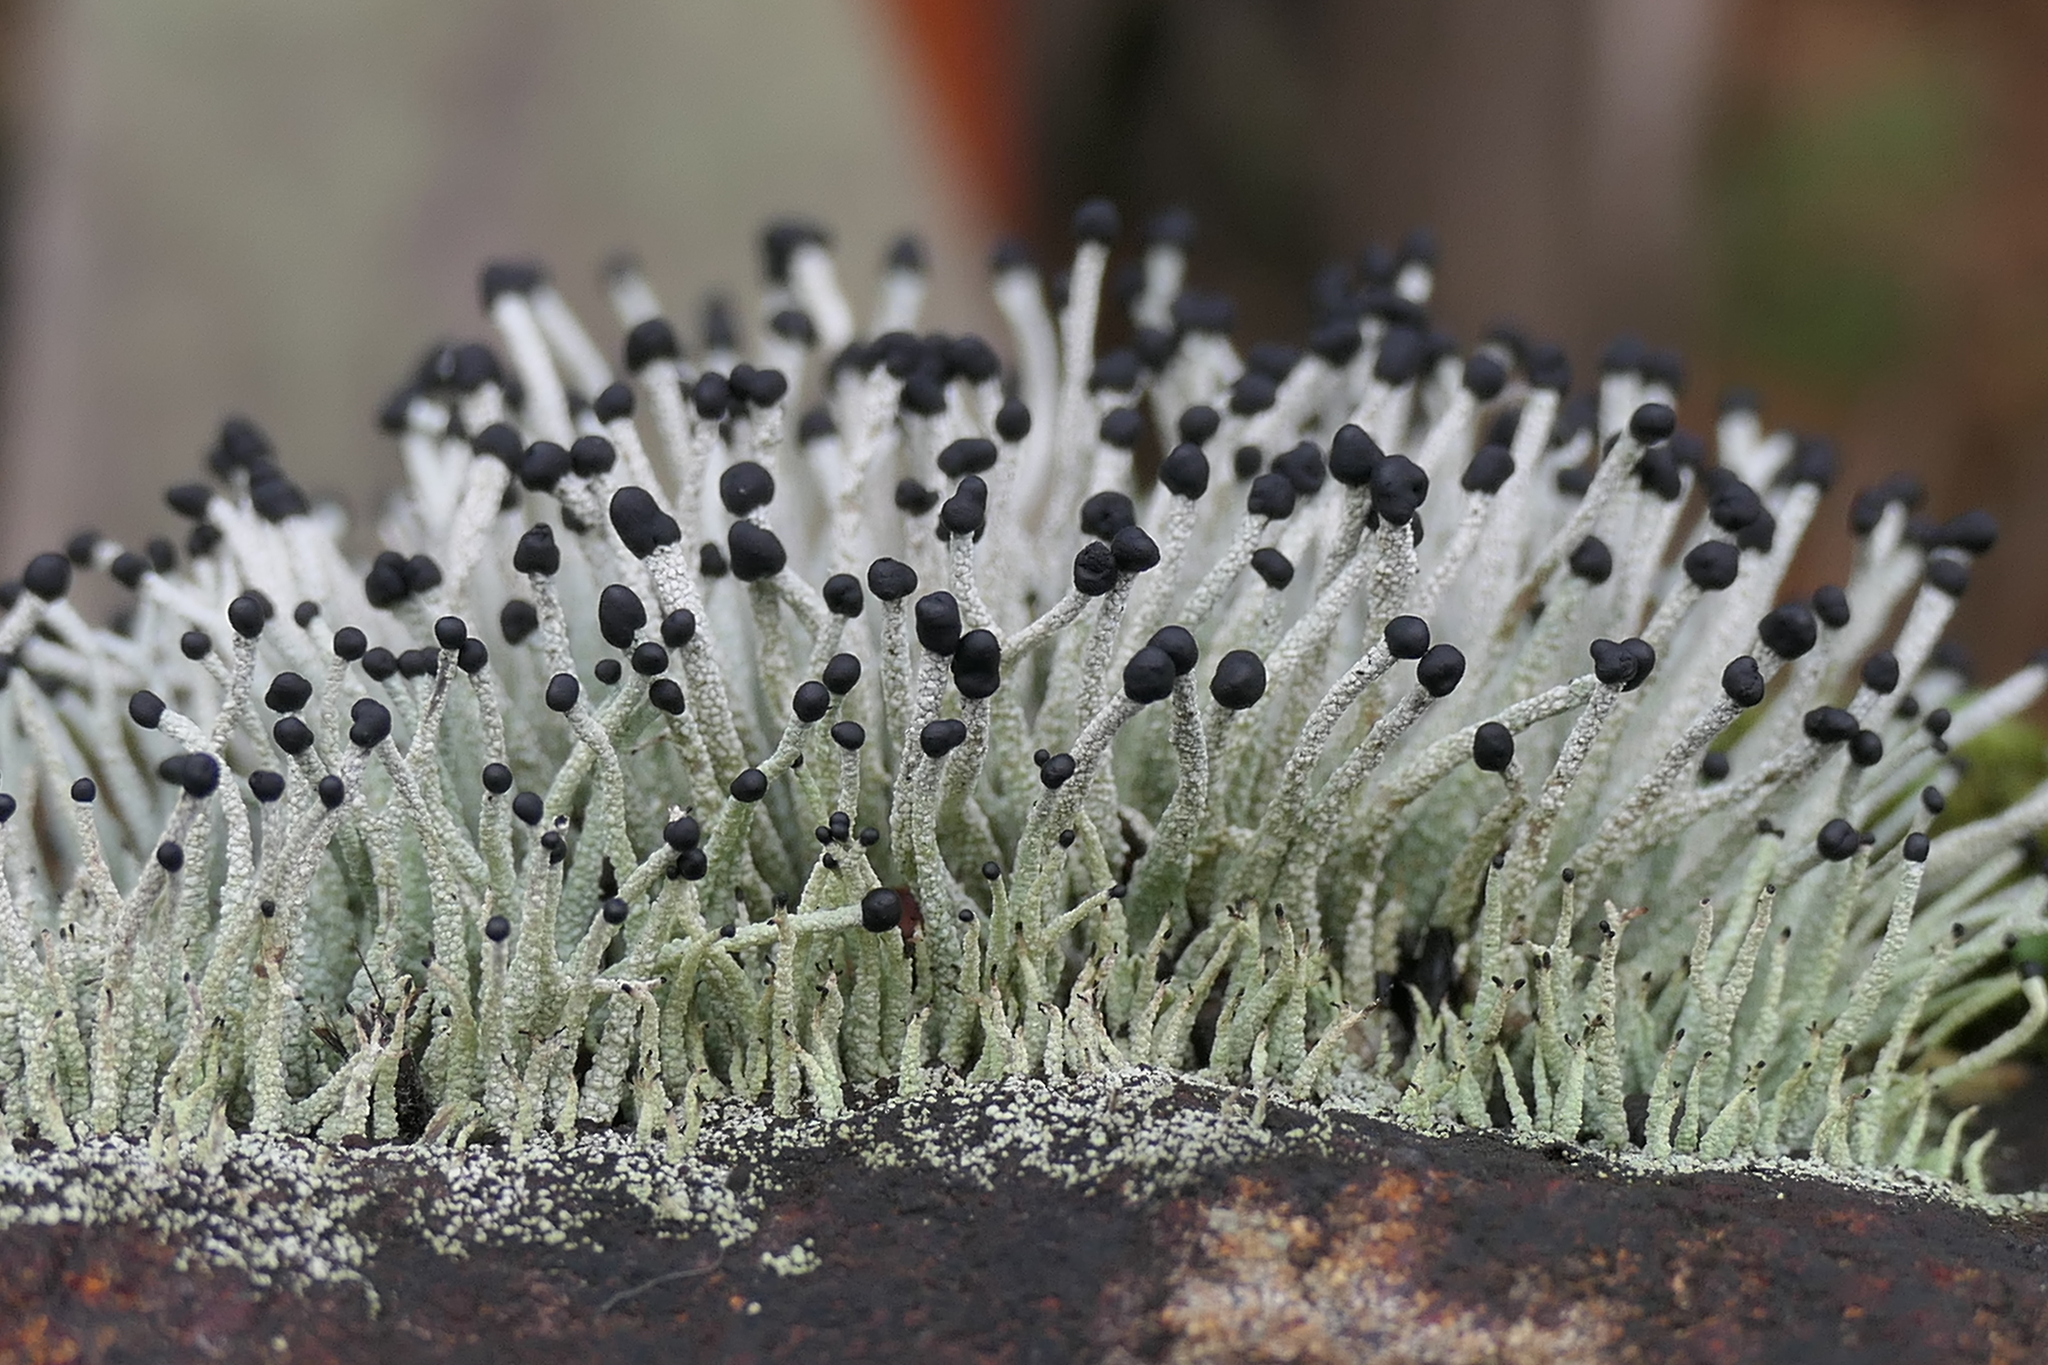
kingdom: Fungi
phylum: Ascomycota
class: Lecanoromycetes
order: Lecanorales
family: Cladoniaceae
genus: Pilophorus
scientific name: Pilophorus acicularis
